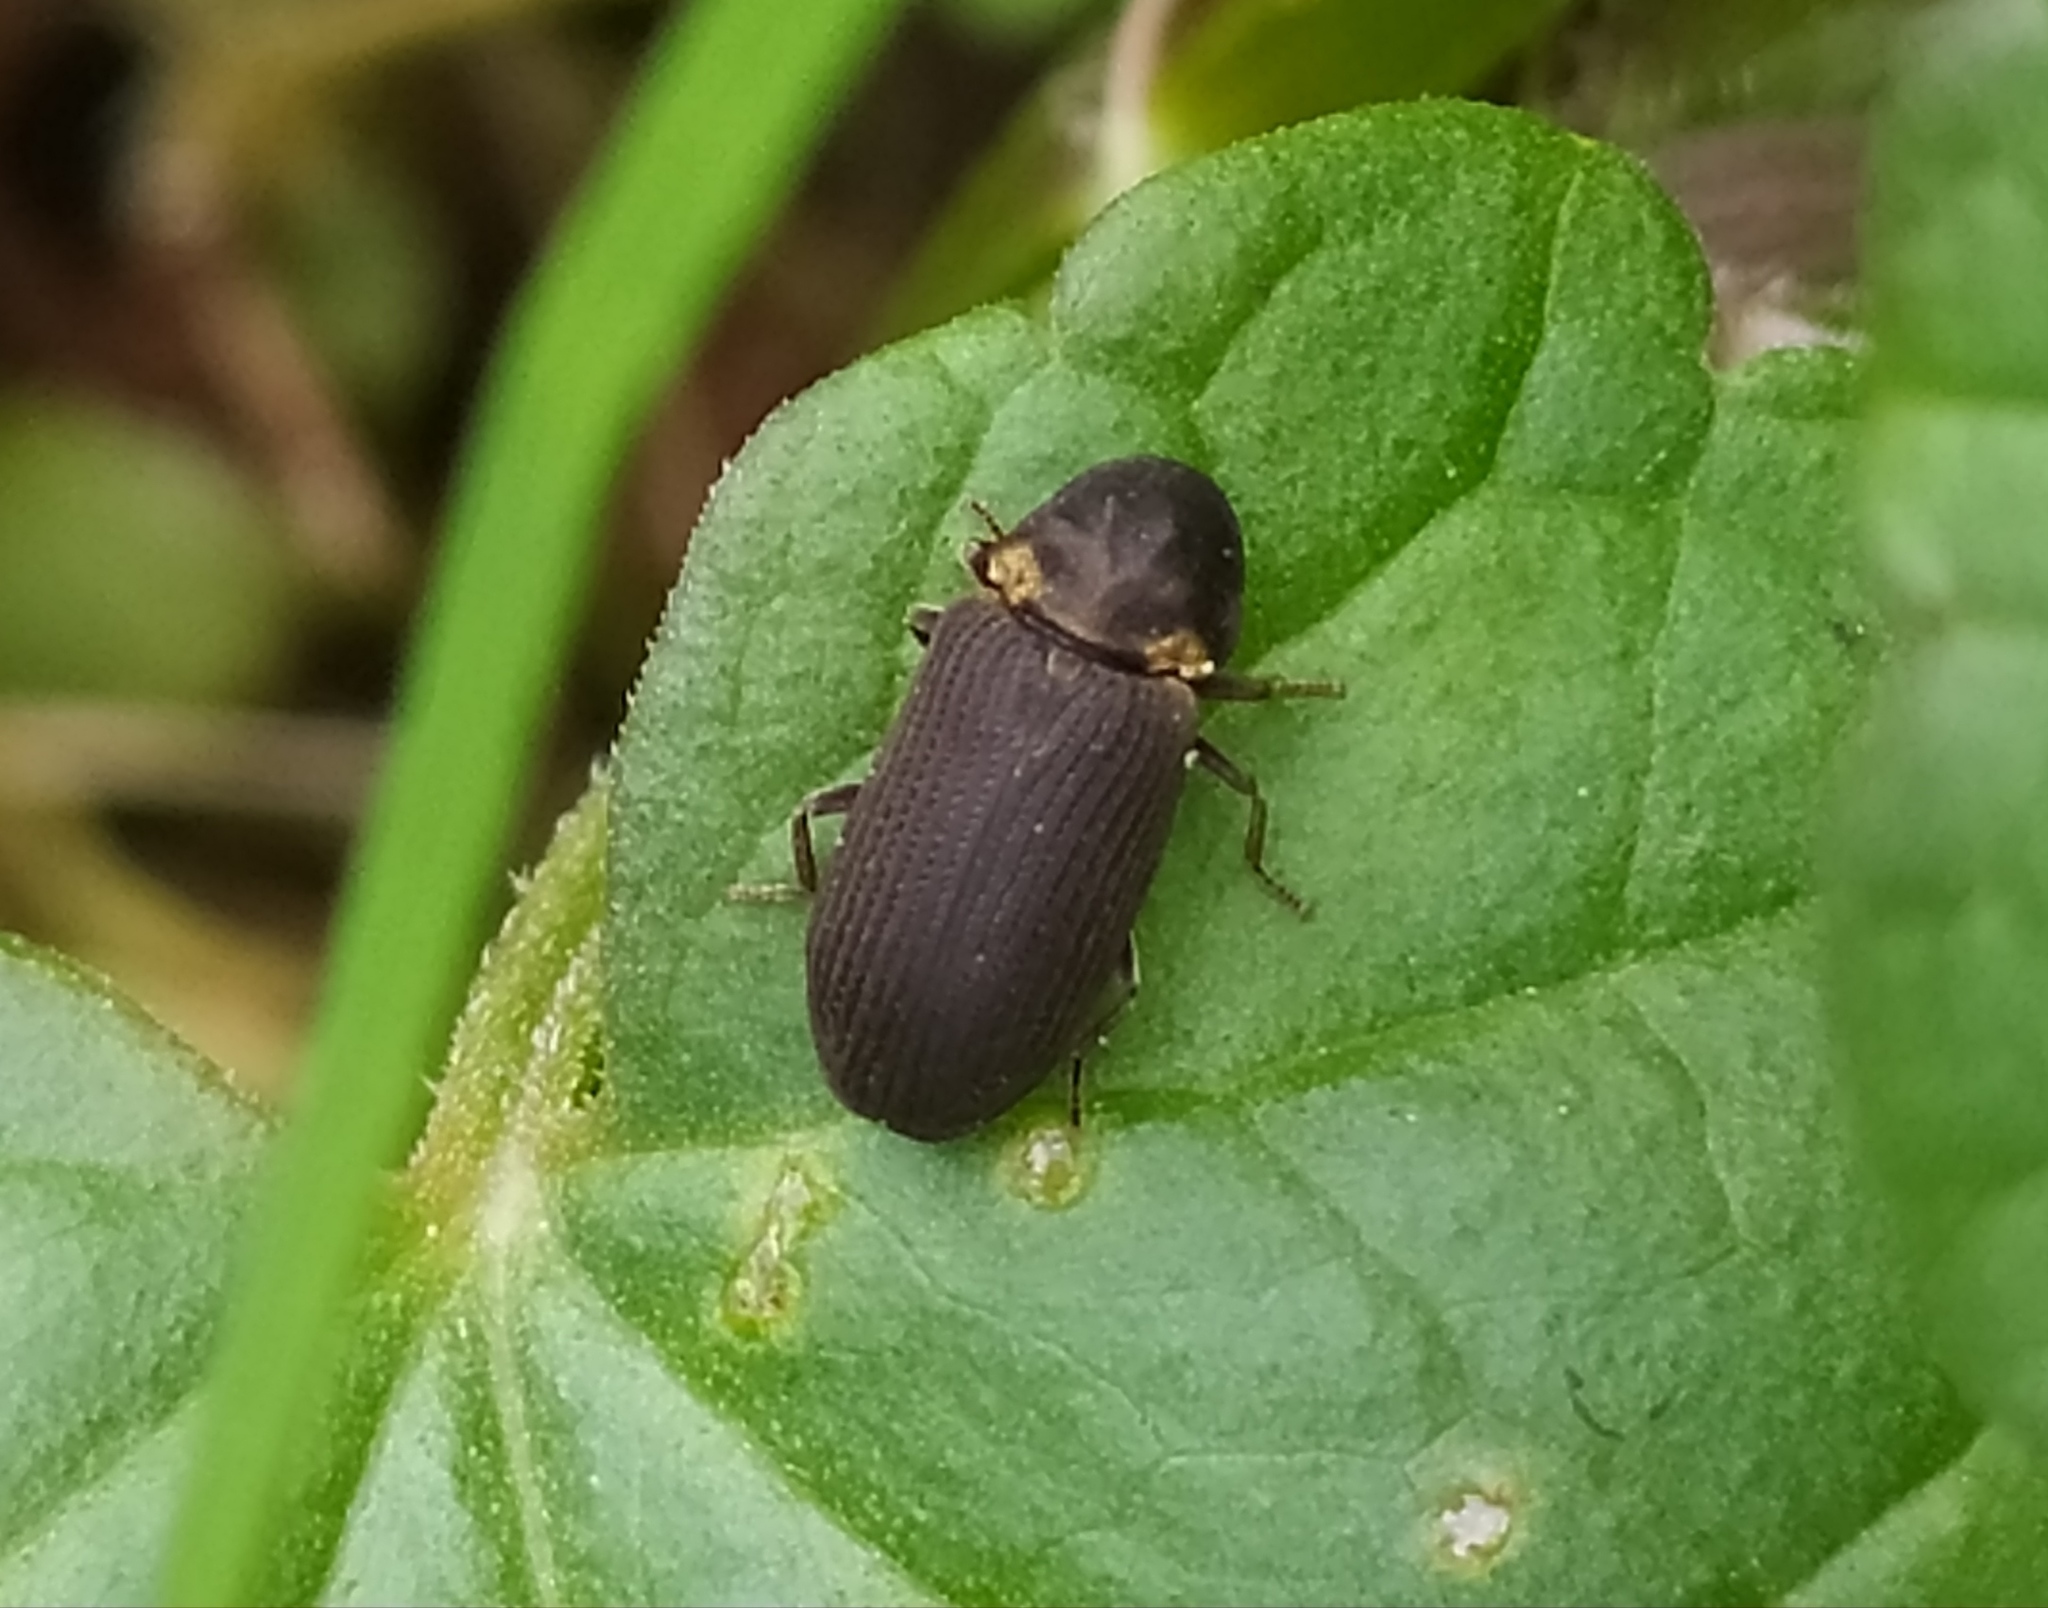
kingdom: Animalia
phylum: Arthropoda
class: Insecta
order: Coleoptera
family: Anobiidae
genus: Hadrobregmus
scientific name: Hadrobregmus pertinax
